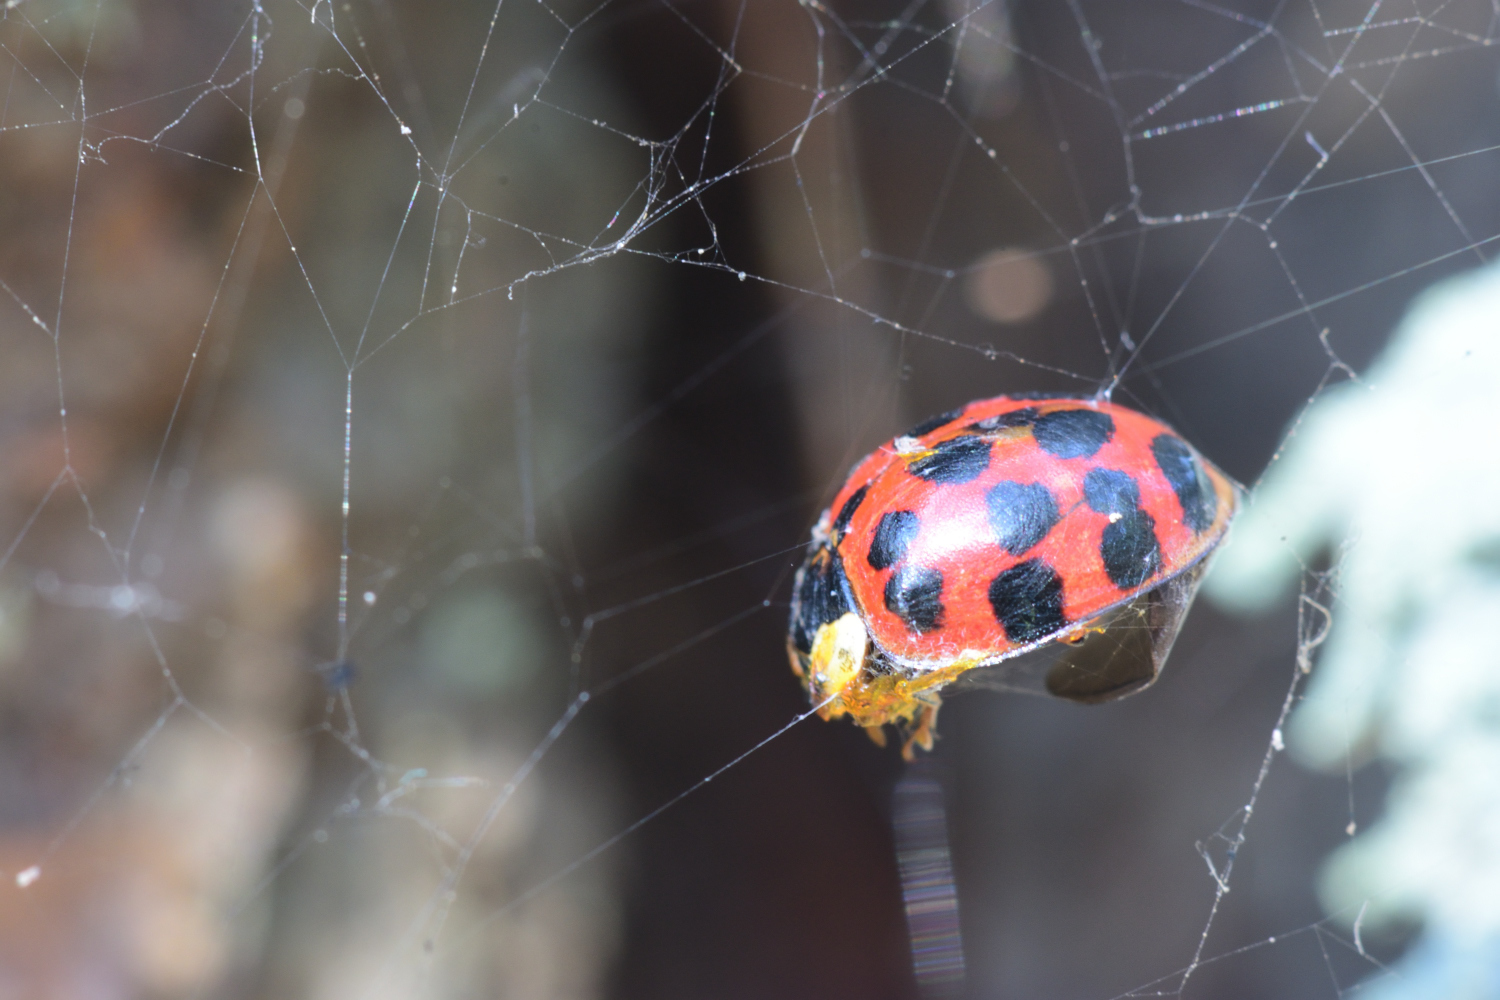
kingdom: Animalia
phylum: Arthropoda
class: Insecta
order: Coleoptera
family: Coccinellidae
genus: Harmonia
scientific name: Harmonia axyridis
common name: Harlequin ladybird
